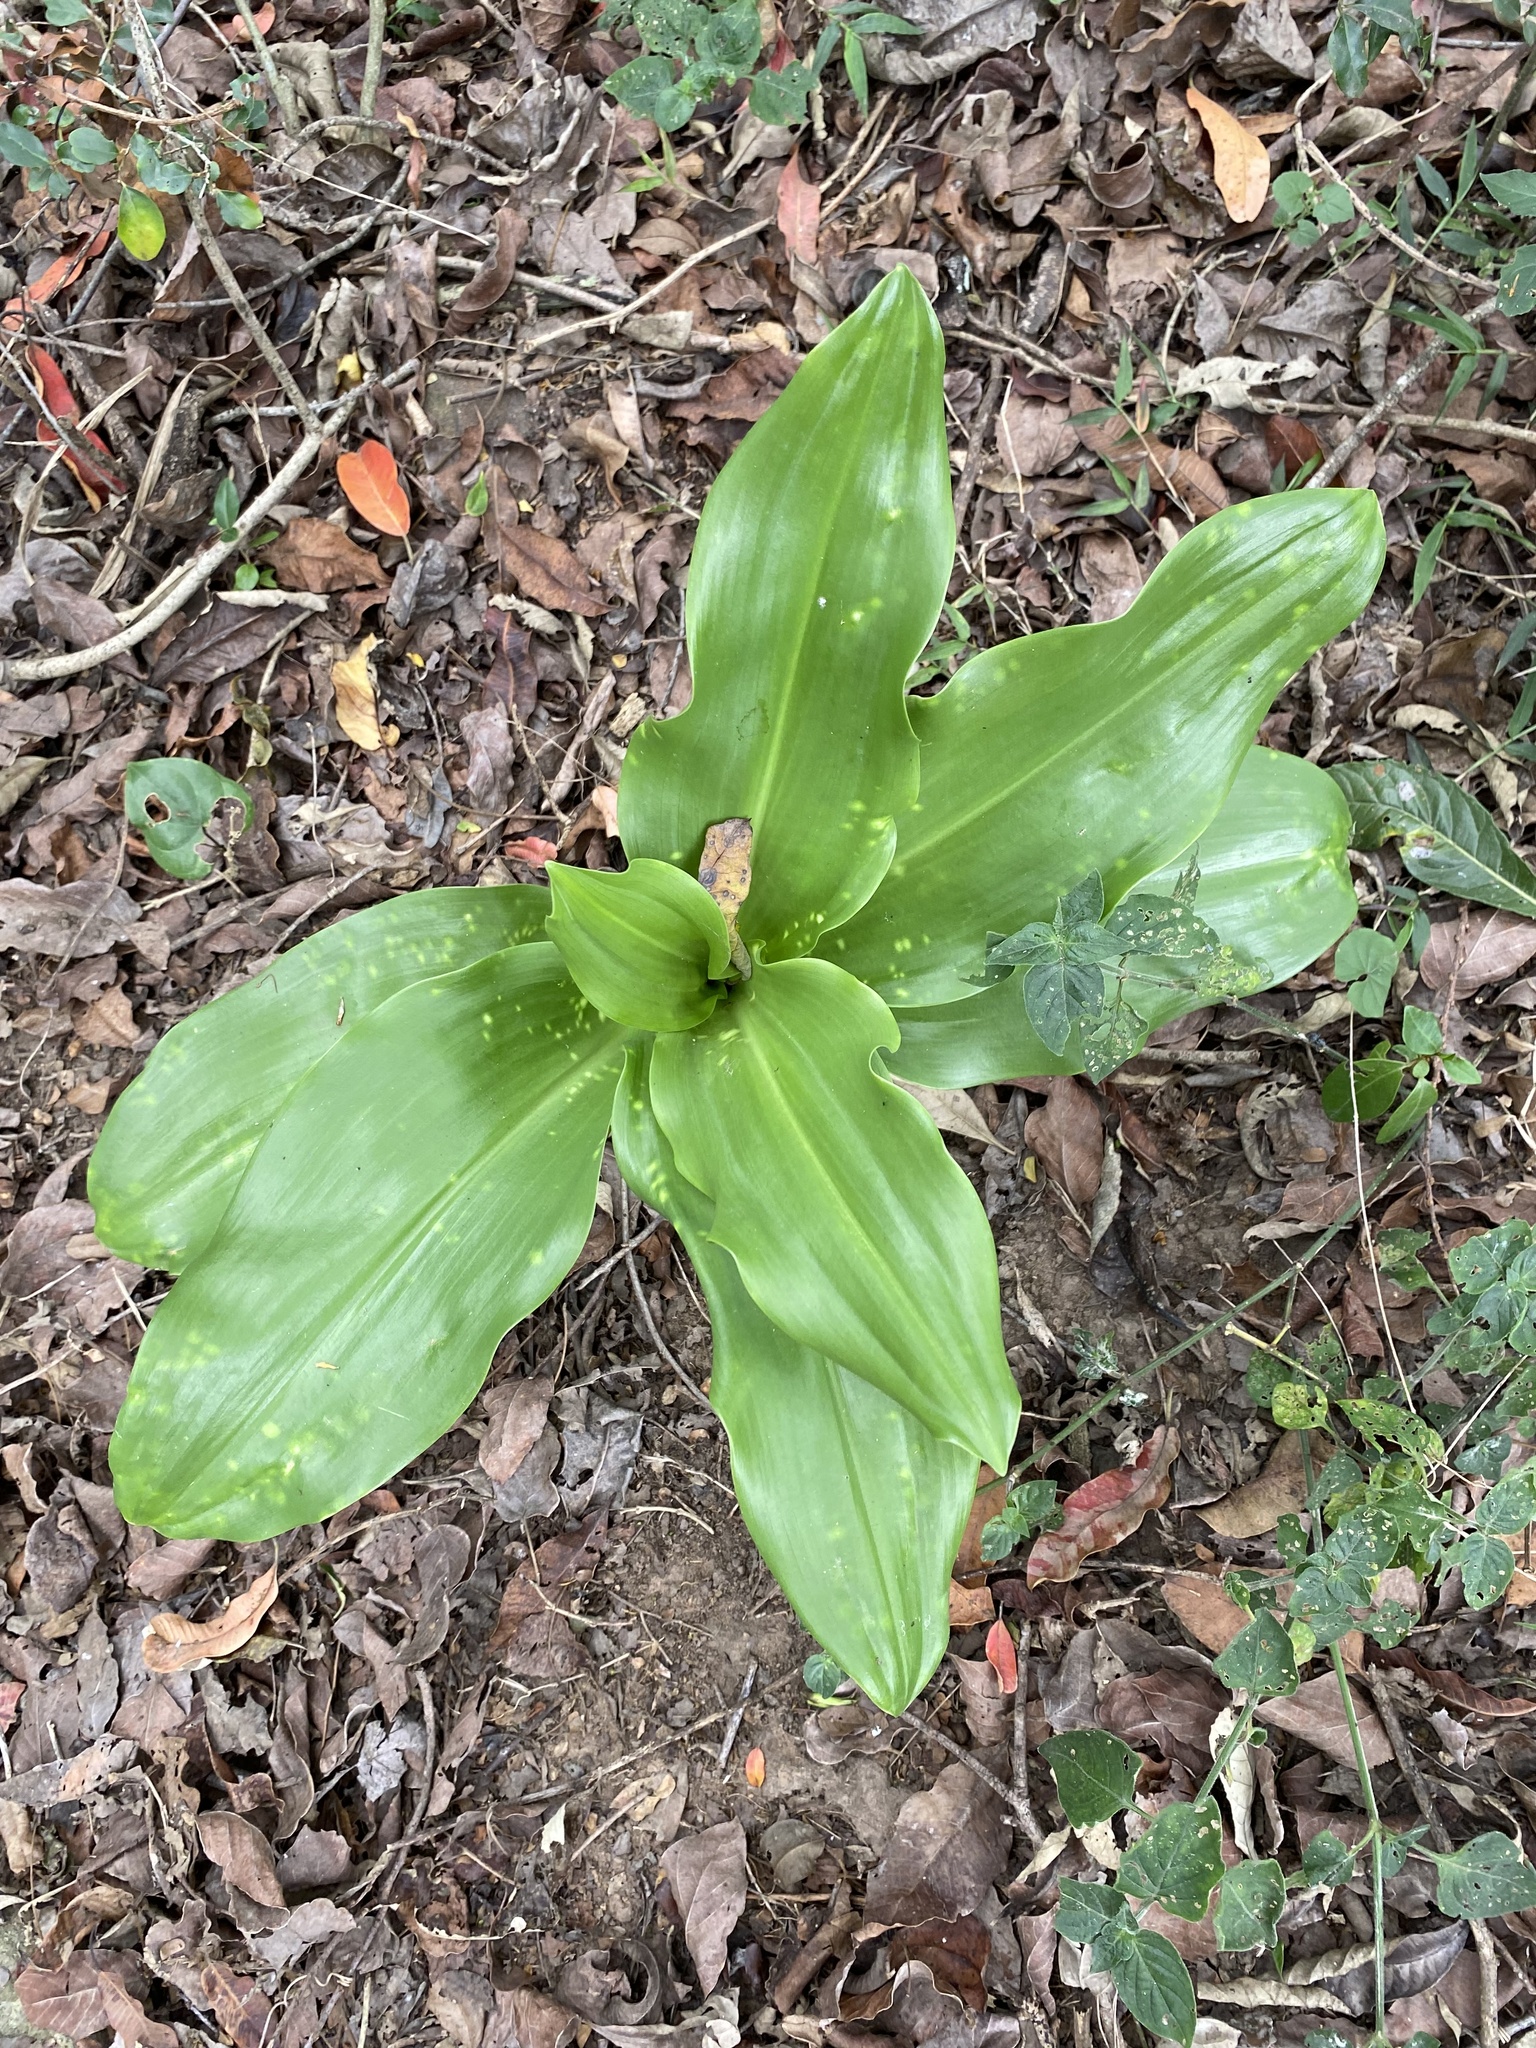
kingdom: Plantae
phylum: Tracheophyta
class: Liliopsida
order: Asparagales
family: Amaryllidaceae
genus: Scadoxus
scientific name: Scadoxus puniceus
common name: Royal-paintbrush
